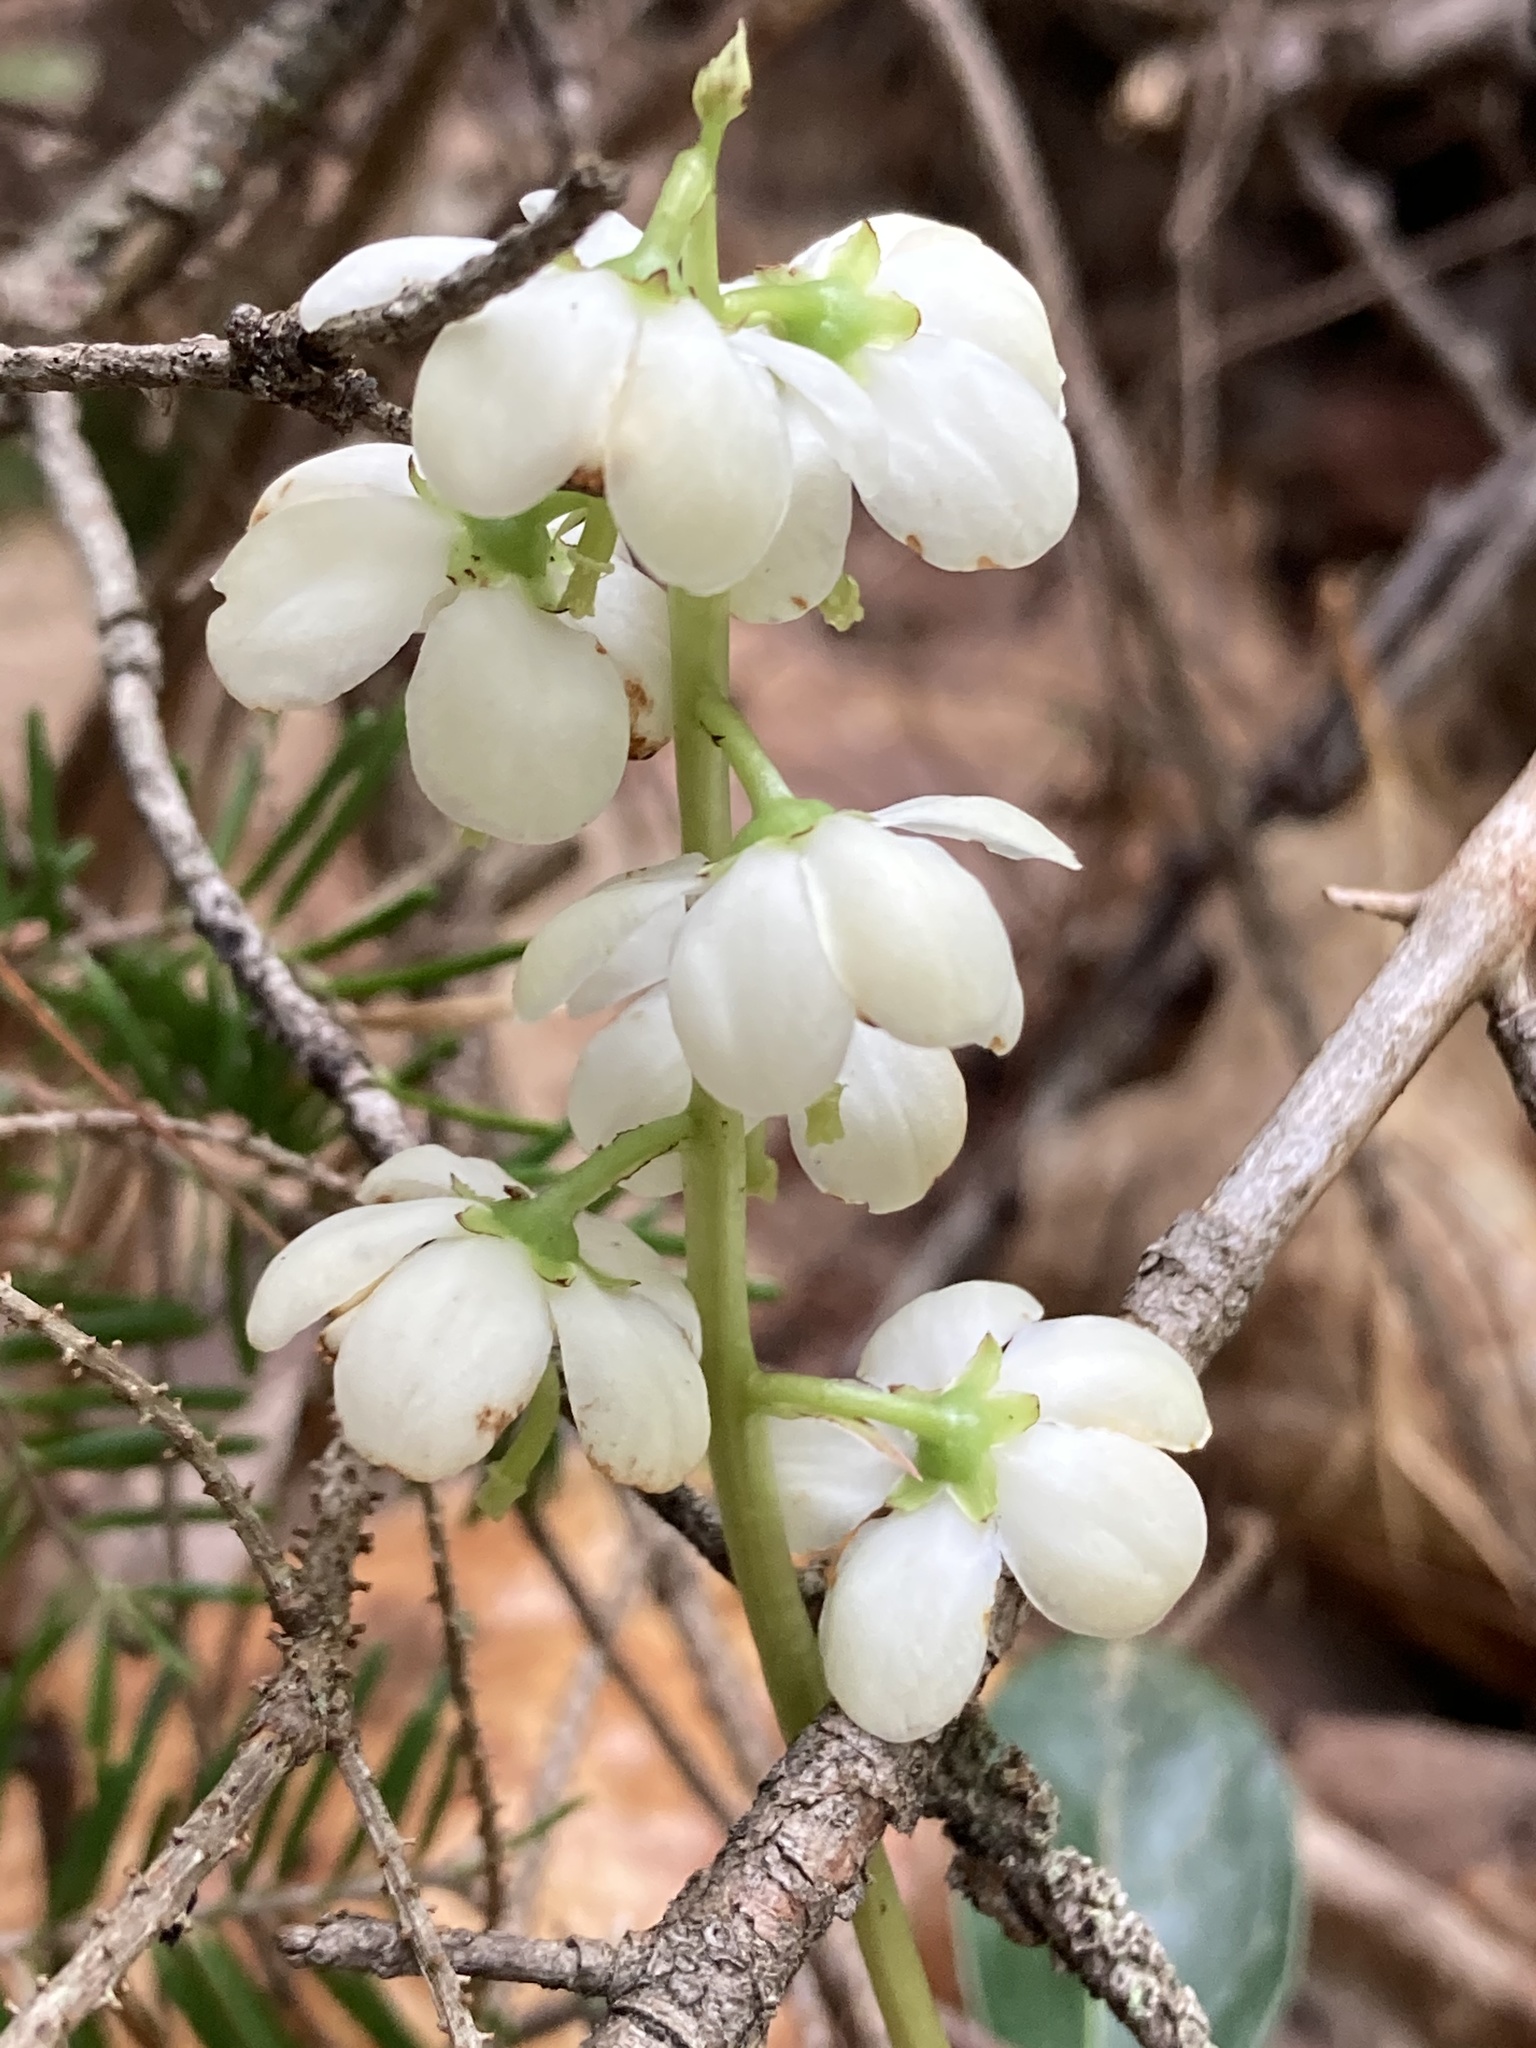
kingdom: Plantae
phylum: Tracheophyta
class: Magnoliopsida
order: Ericales
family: Ericaceae
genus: Pyrola
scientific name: Pyrola americana
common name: American wintergreen
